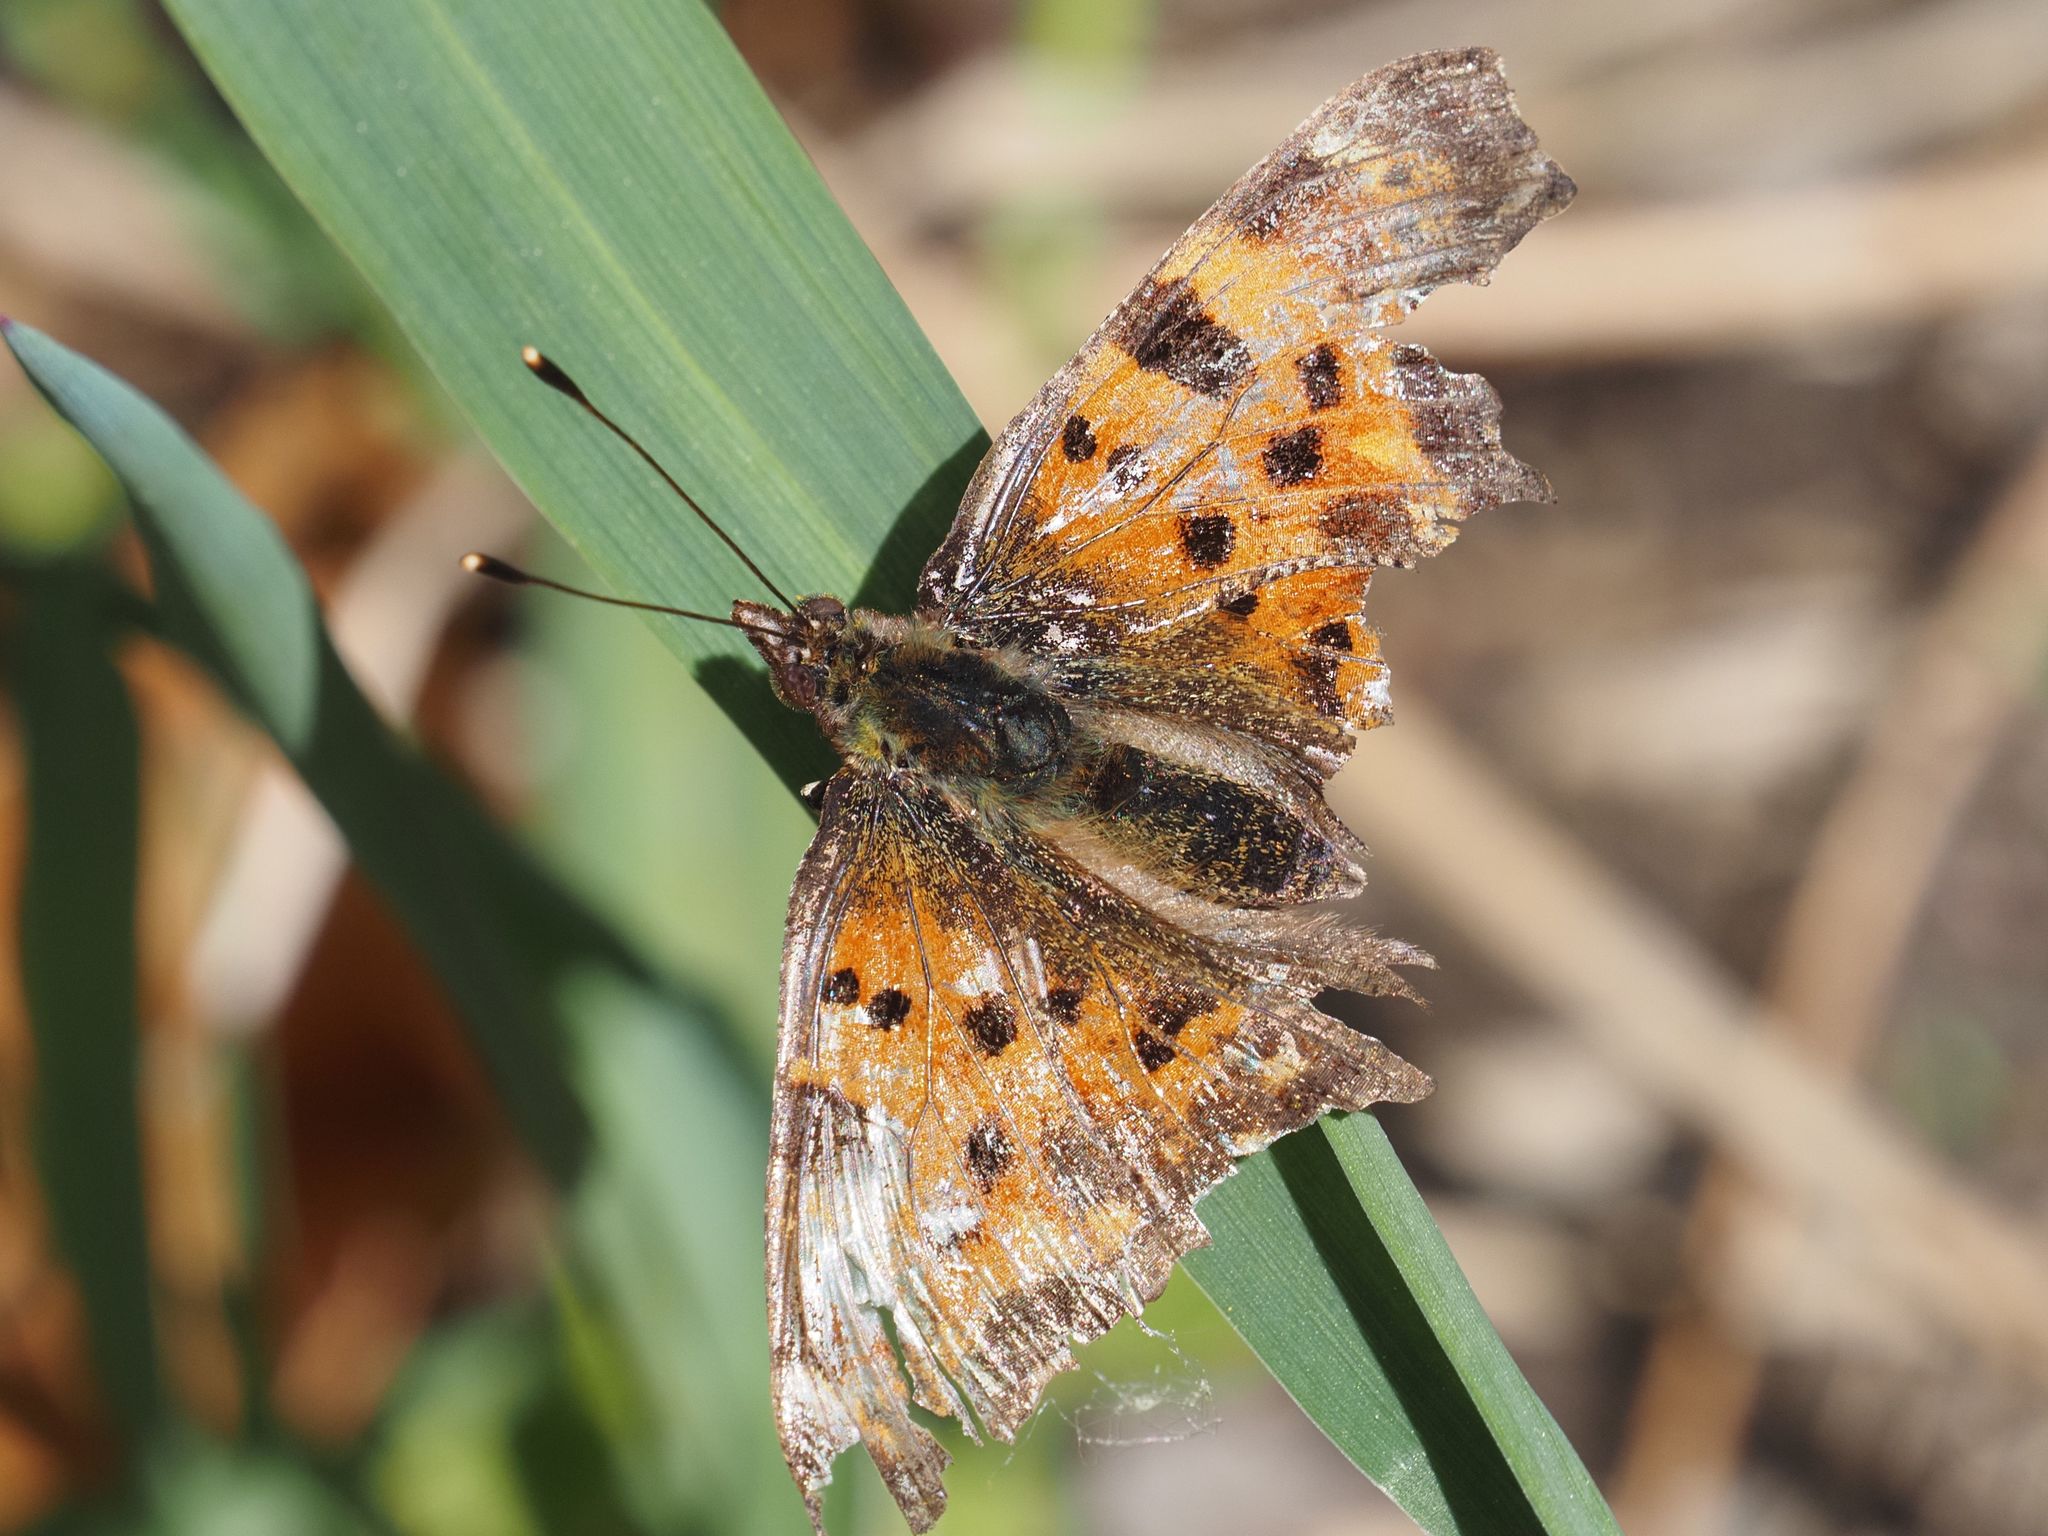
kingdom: Animalia
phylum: Arthropoda
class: Insecta
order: Lepidoptera
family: Nymphalidae
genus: Polygonia
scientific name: Polygonia c-album
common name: Comma
